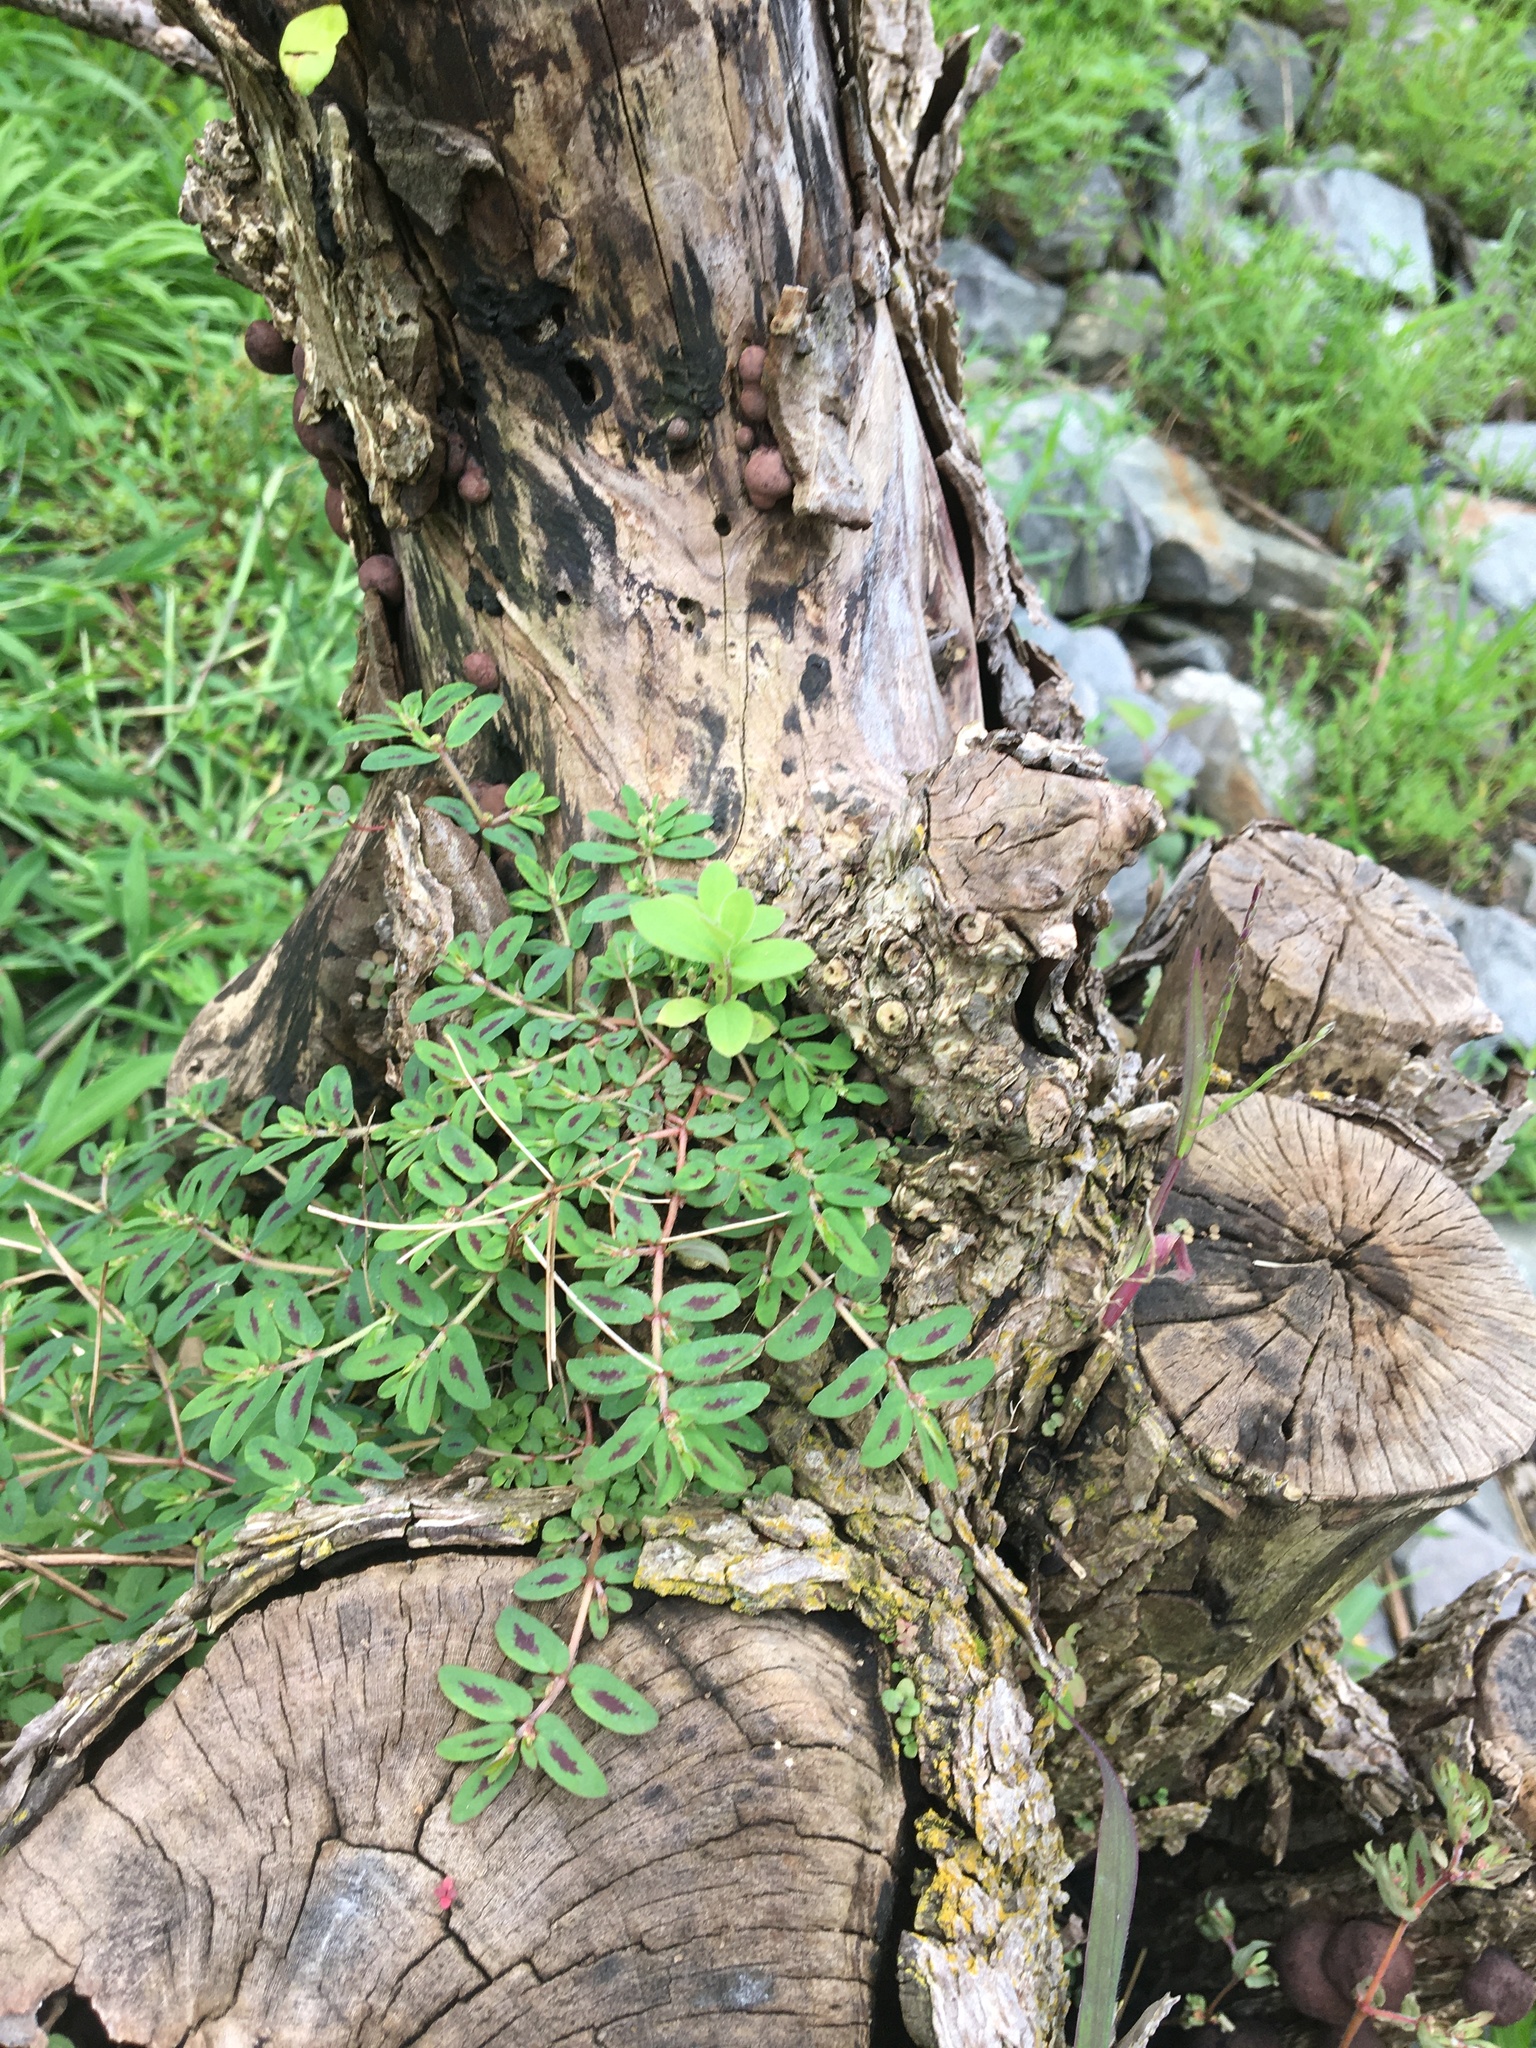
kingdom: Plantae
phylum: Tracheophyta
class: Magnoliopsida
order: Malpighiales
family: Euphorbiaceae
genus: Euphorbia
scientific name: Euphorbia maculata
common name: Spotted spurge
